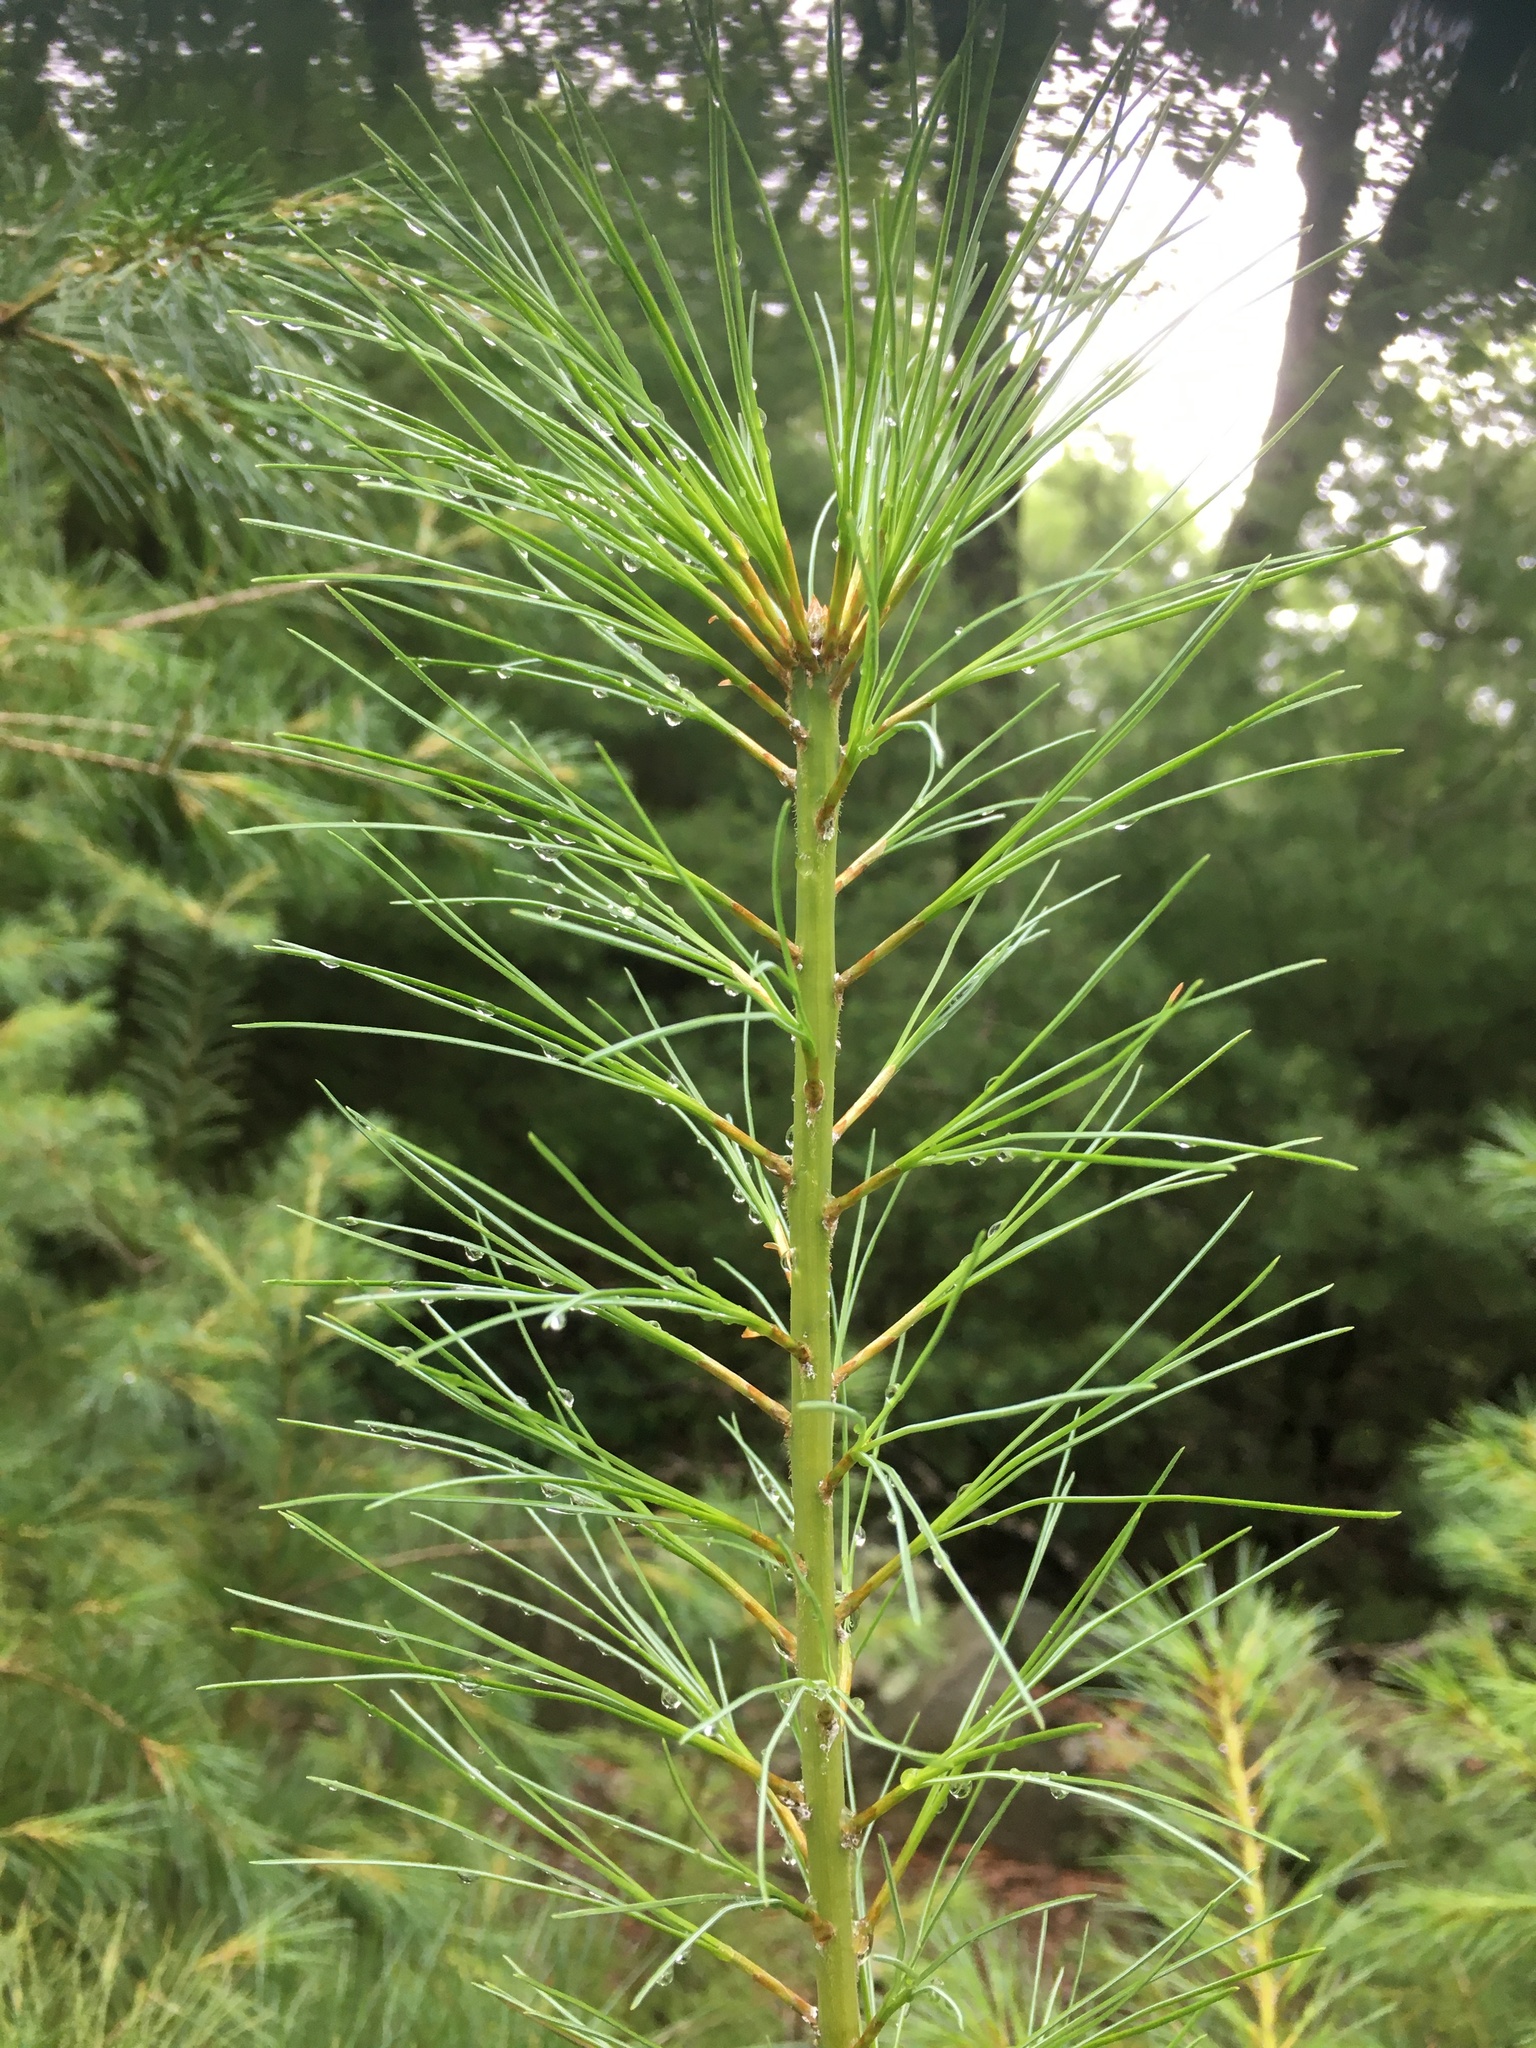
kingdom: Plantae
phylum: Tracheophyta
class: Pinopsida
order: Pinales
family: Pinaceae
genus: Pinus
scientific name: Pinus strobus
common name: Weymouth pine
